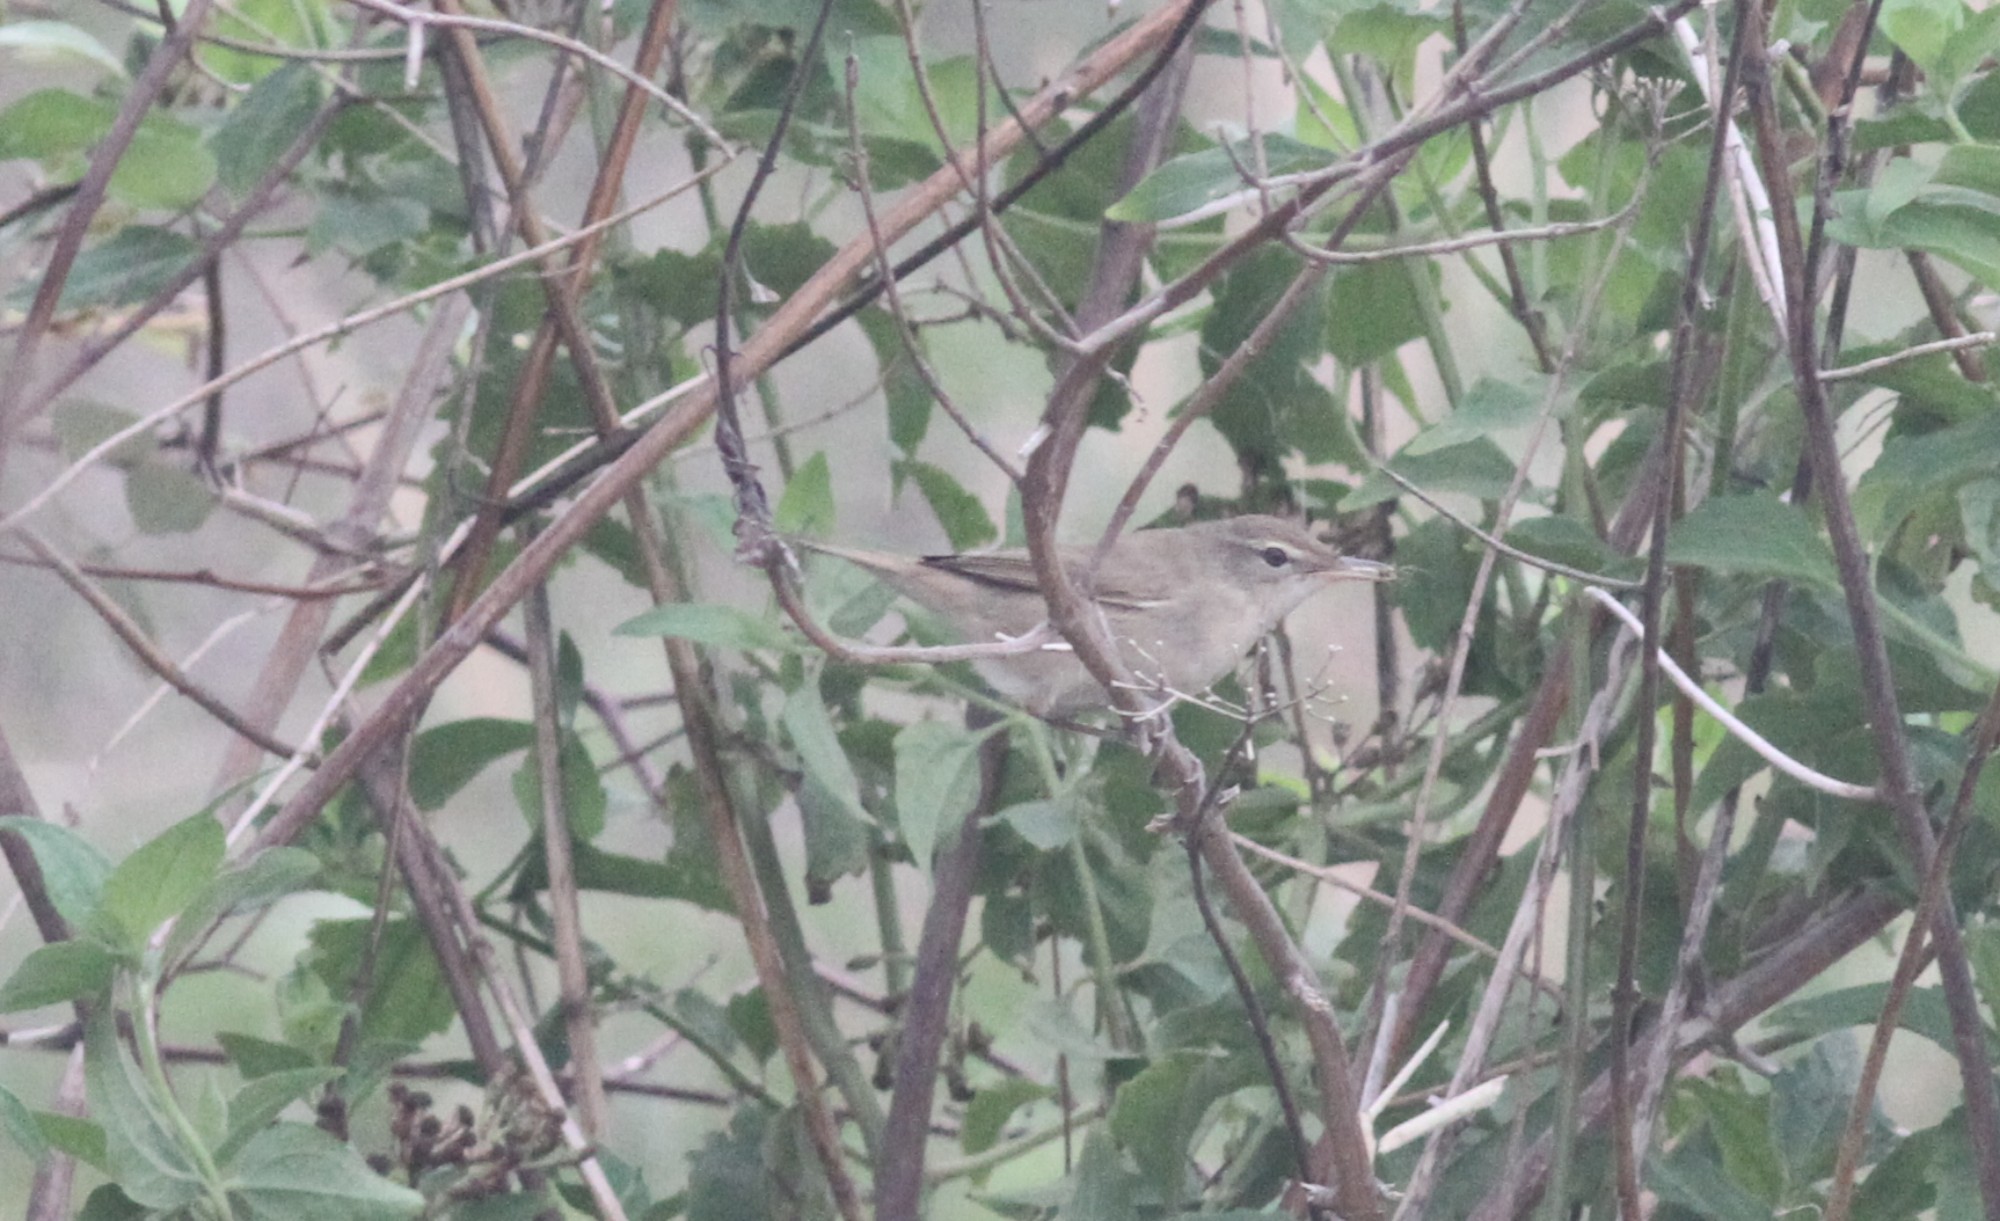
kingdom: Animalia
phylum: Chordata
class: Aves
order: Passeriformes
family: Acrocephalidae
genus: Acrocephalus
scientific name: Acrocephalus dumetorum
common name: Blyth's reed warbler
